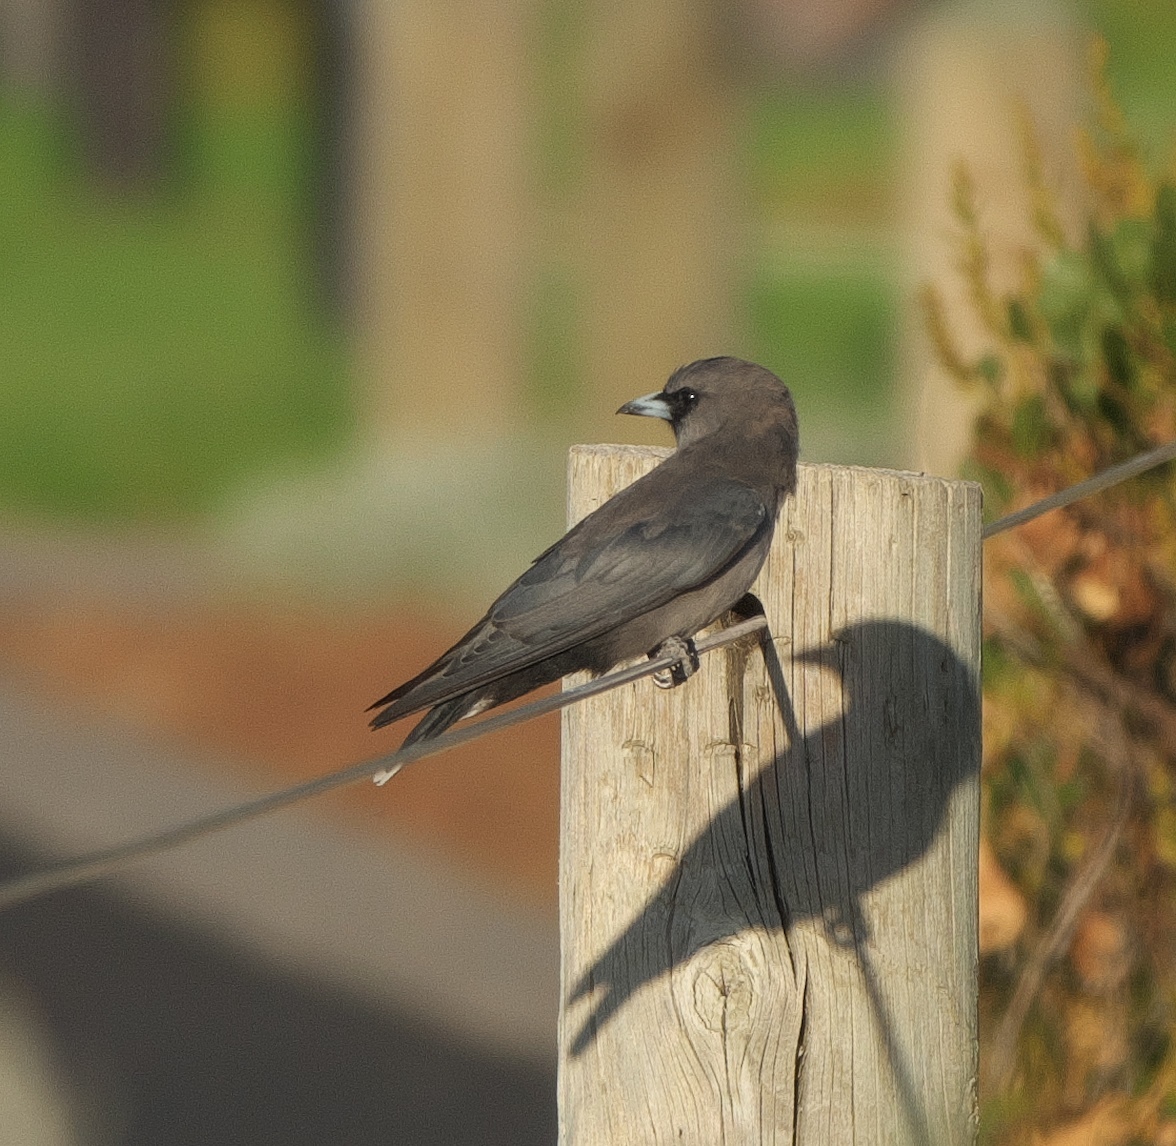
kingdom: Animalia
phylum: Chordata
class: Aves
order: Passeriformes
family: Artamidae
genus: Artamus
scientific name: Artamus cinereus
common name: Black-faced woodswallow
